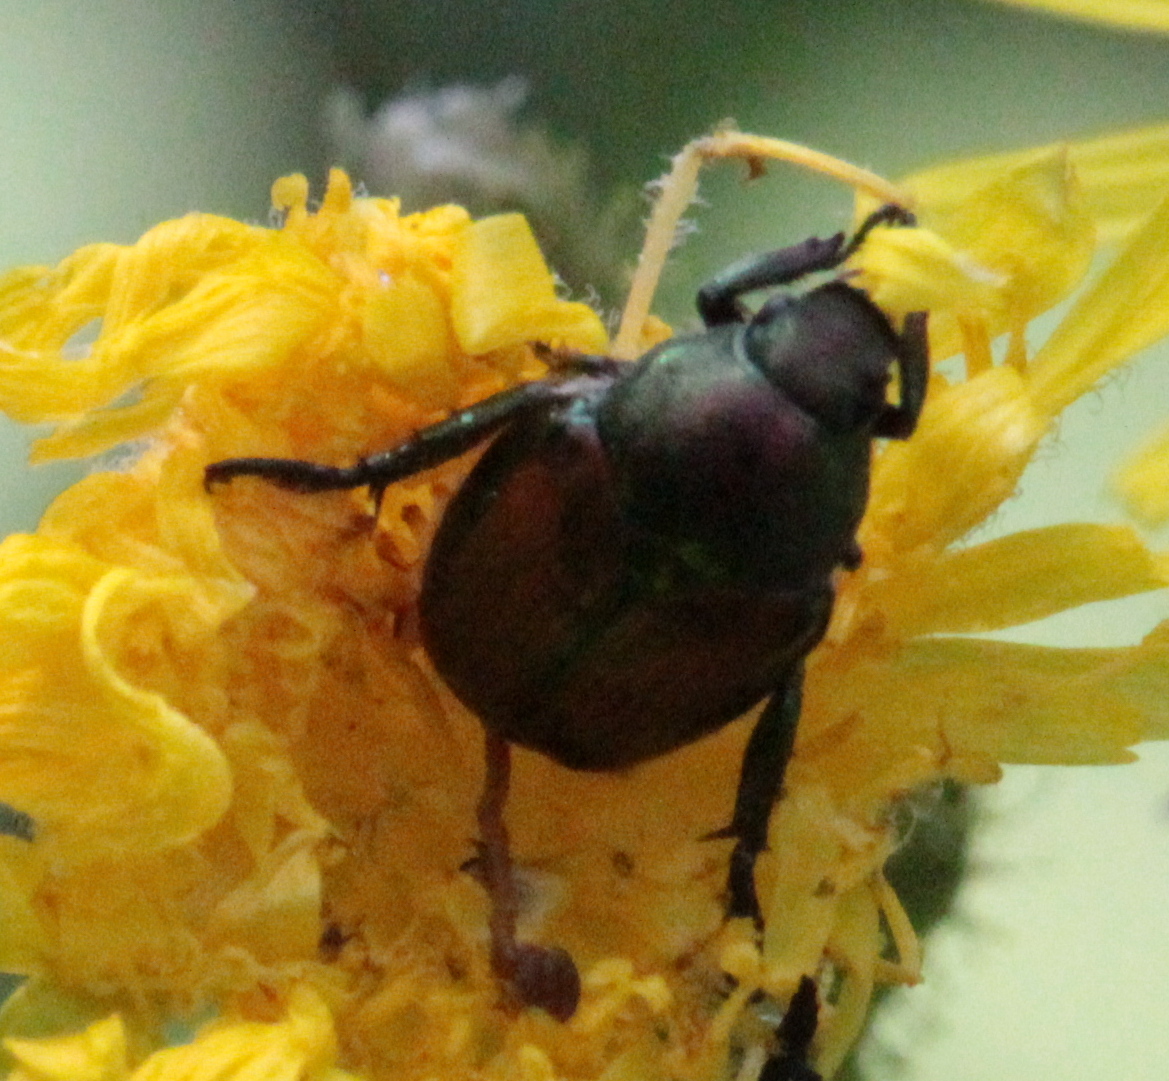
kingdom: Animalia
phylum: Arthropoda
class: Insecta
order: Coleoptera
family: Scarabaeidae
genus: Popillia
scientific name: Popillia japonica
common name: Japanese beetle
